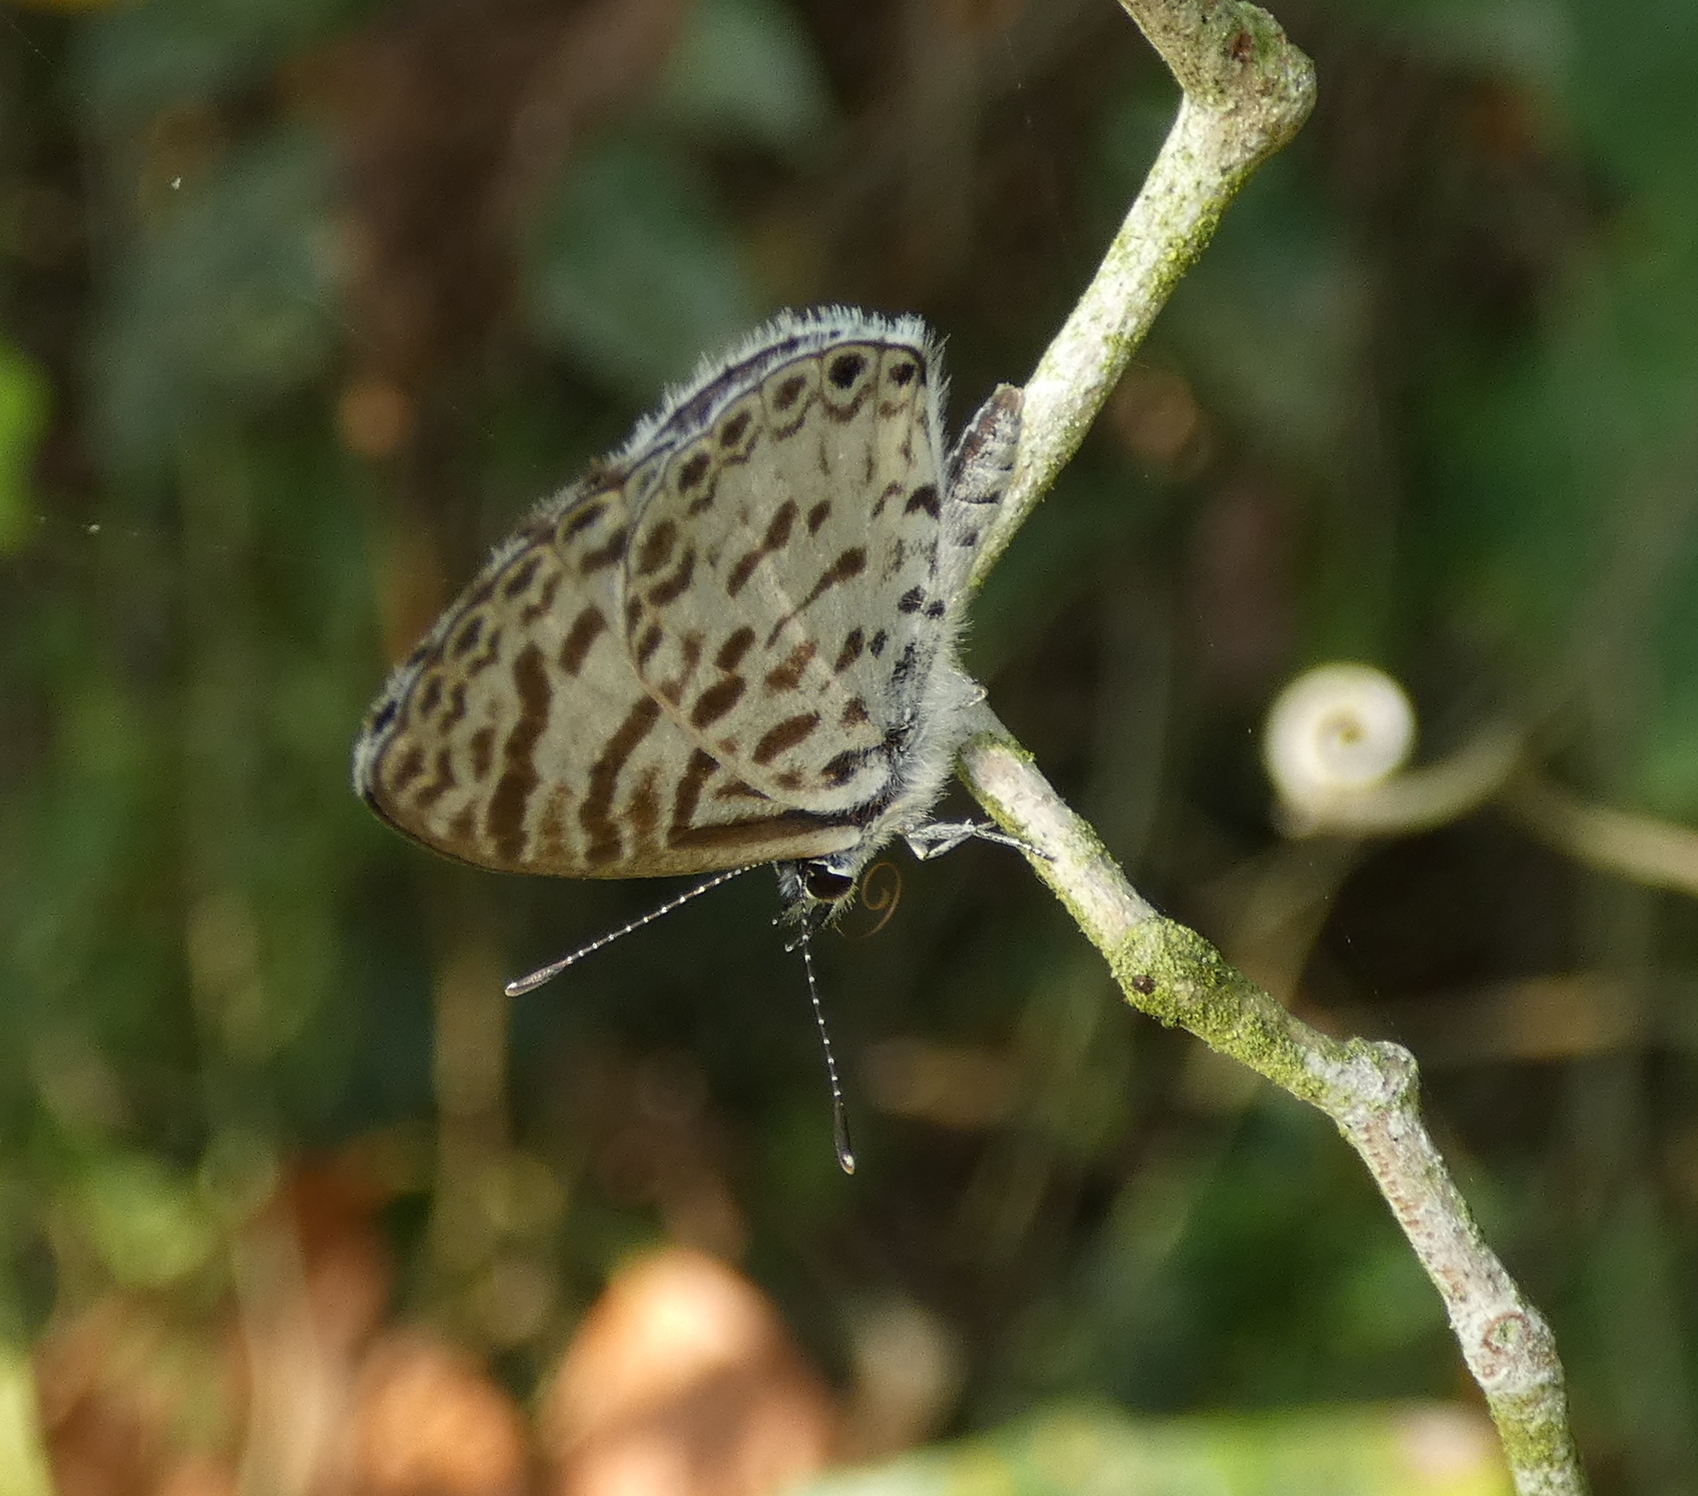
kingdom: Animalia
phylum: Arthropoda
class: Insecta
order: Lepidoptera
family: Lycaenidae
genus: Leptotes
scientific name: Leptotes cassius
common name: Cassius blue
